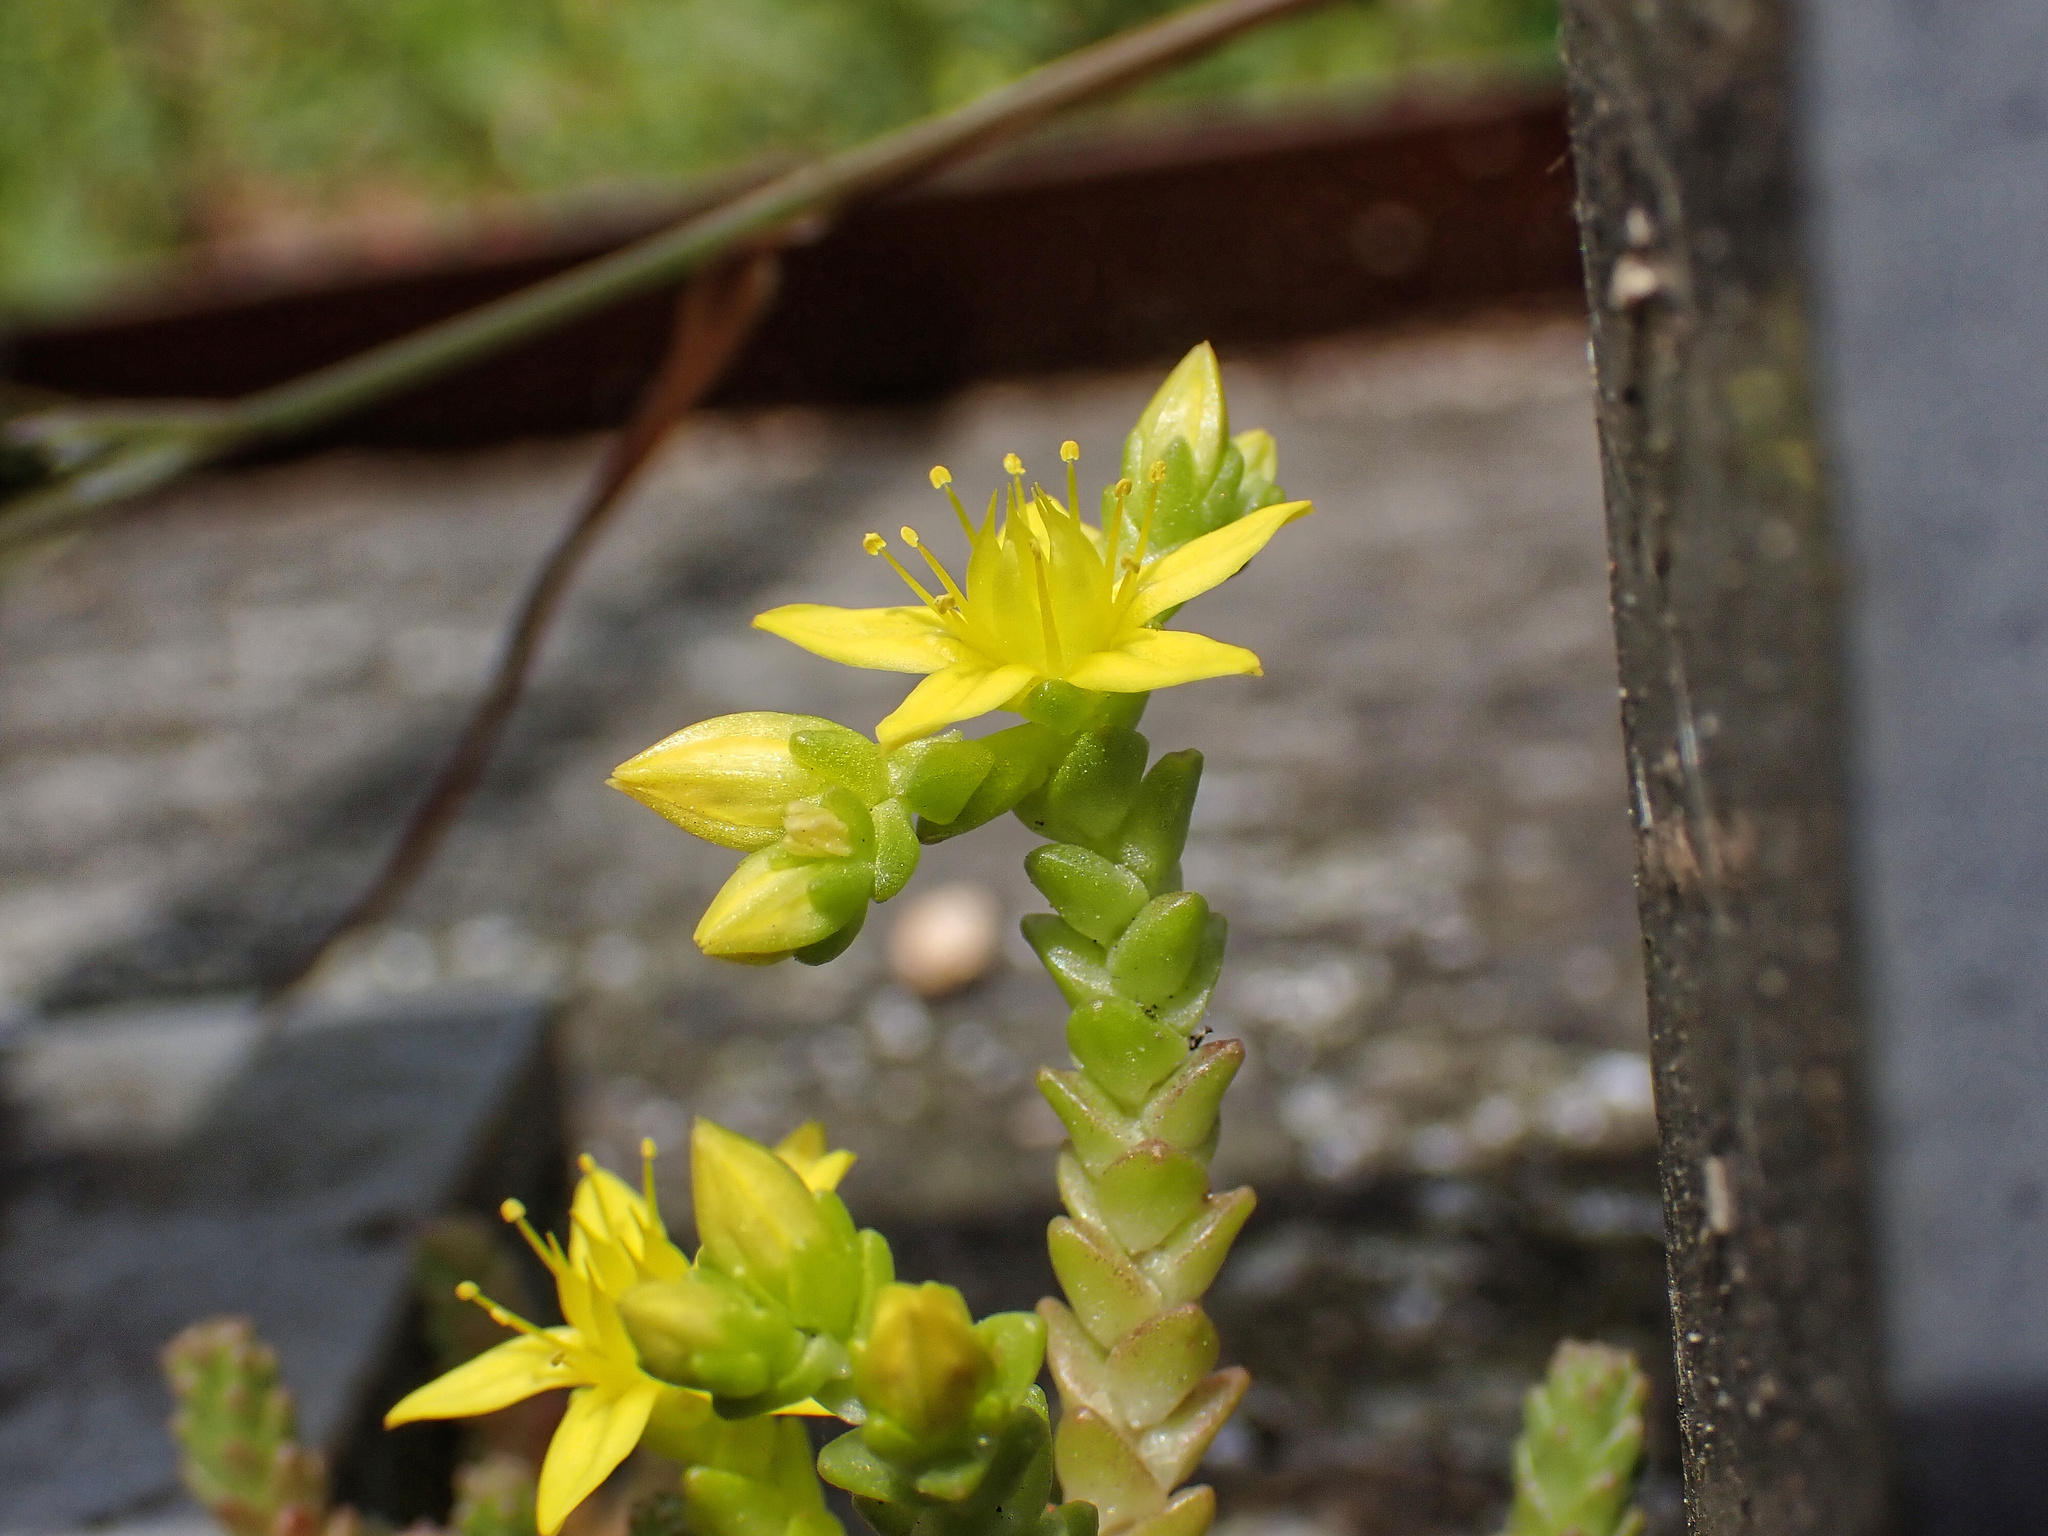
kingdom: Plantae
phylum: Tracheophyta
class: Magnoliopsida
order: Saxifragales
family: Crassulaceae
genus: Sedum
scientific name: Sedum acre
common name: Biting stonecrop
